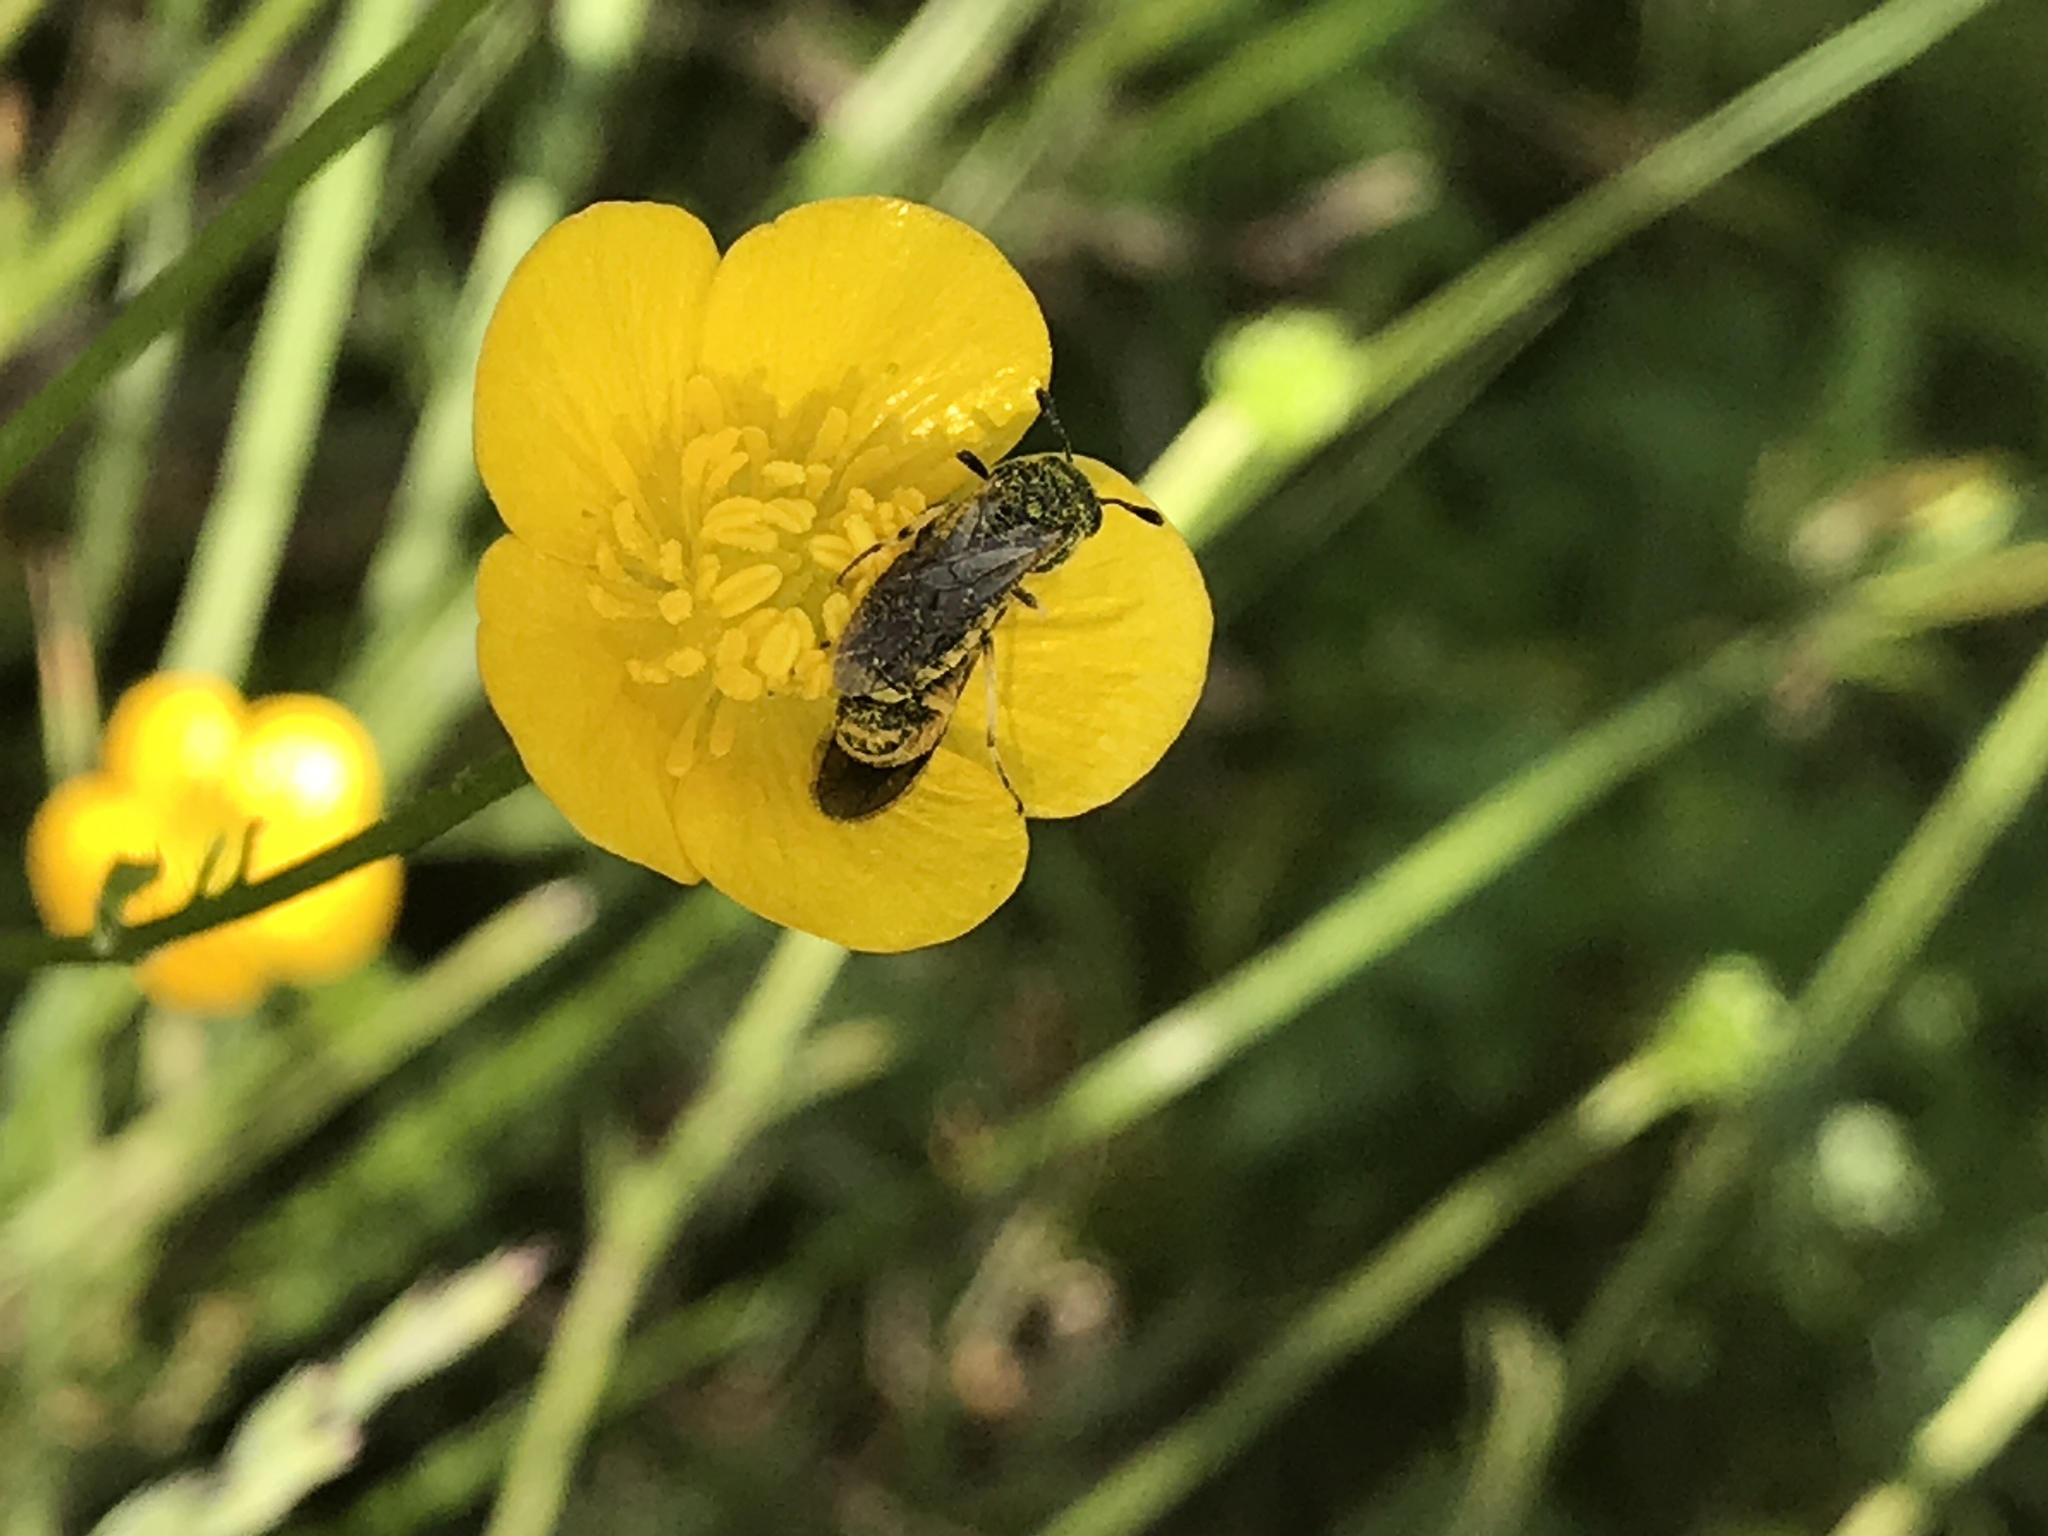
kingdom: Animalia
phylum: Arthropoda
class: Insecta
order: Hymenoptera
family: Cimbicidae
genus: Corynis
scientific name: Corynis crassicornis
